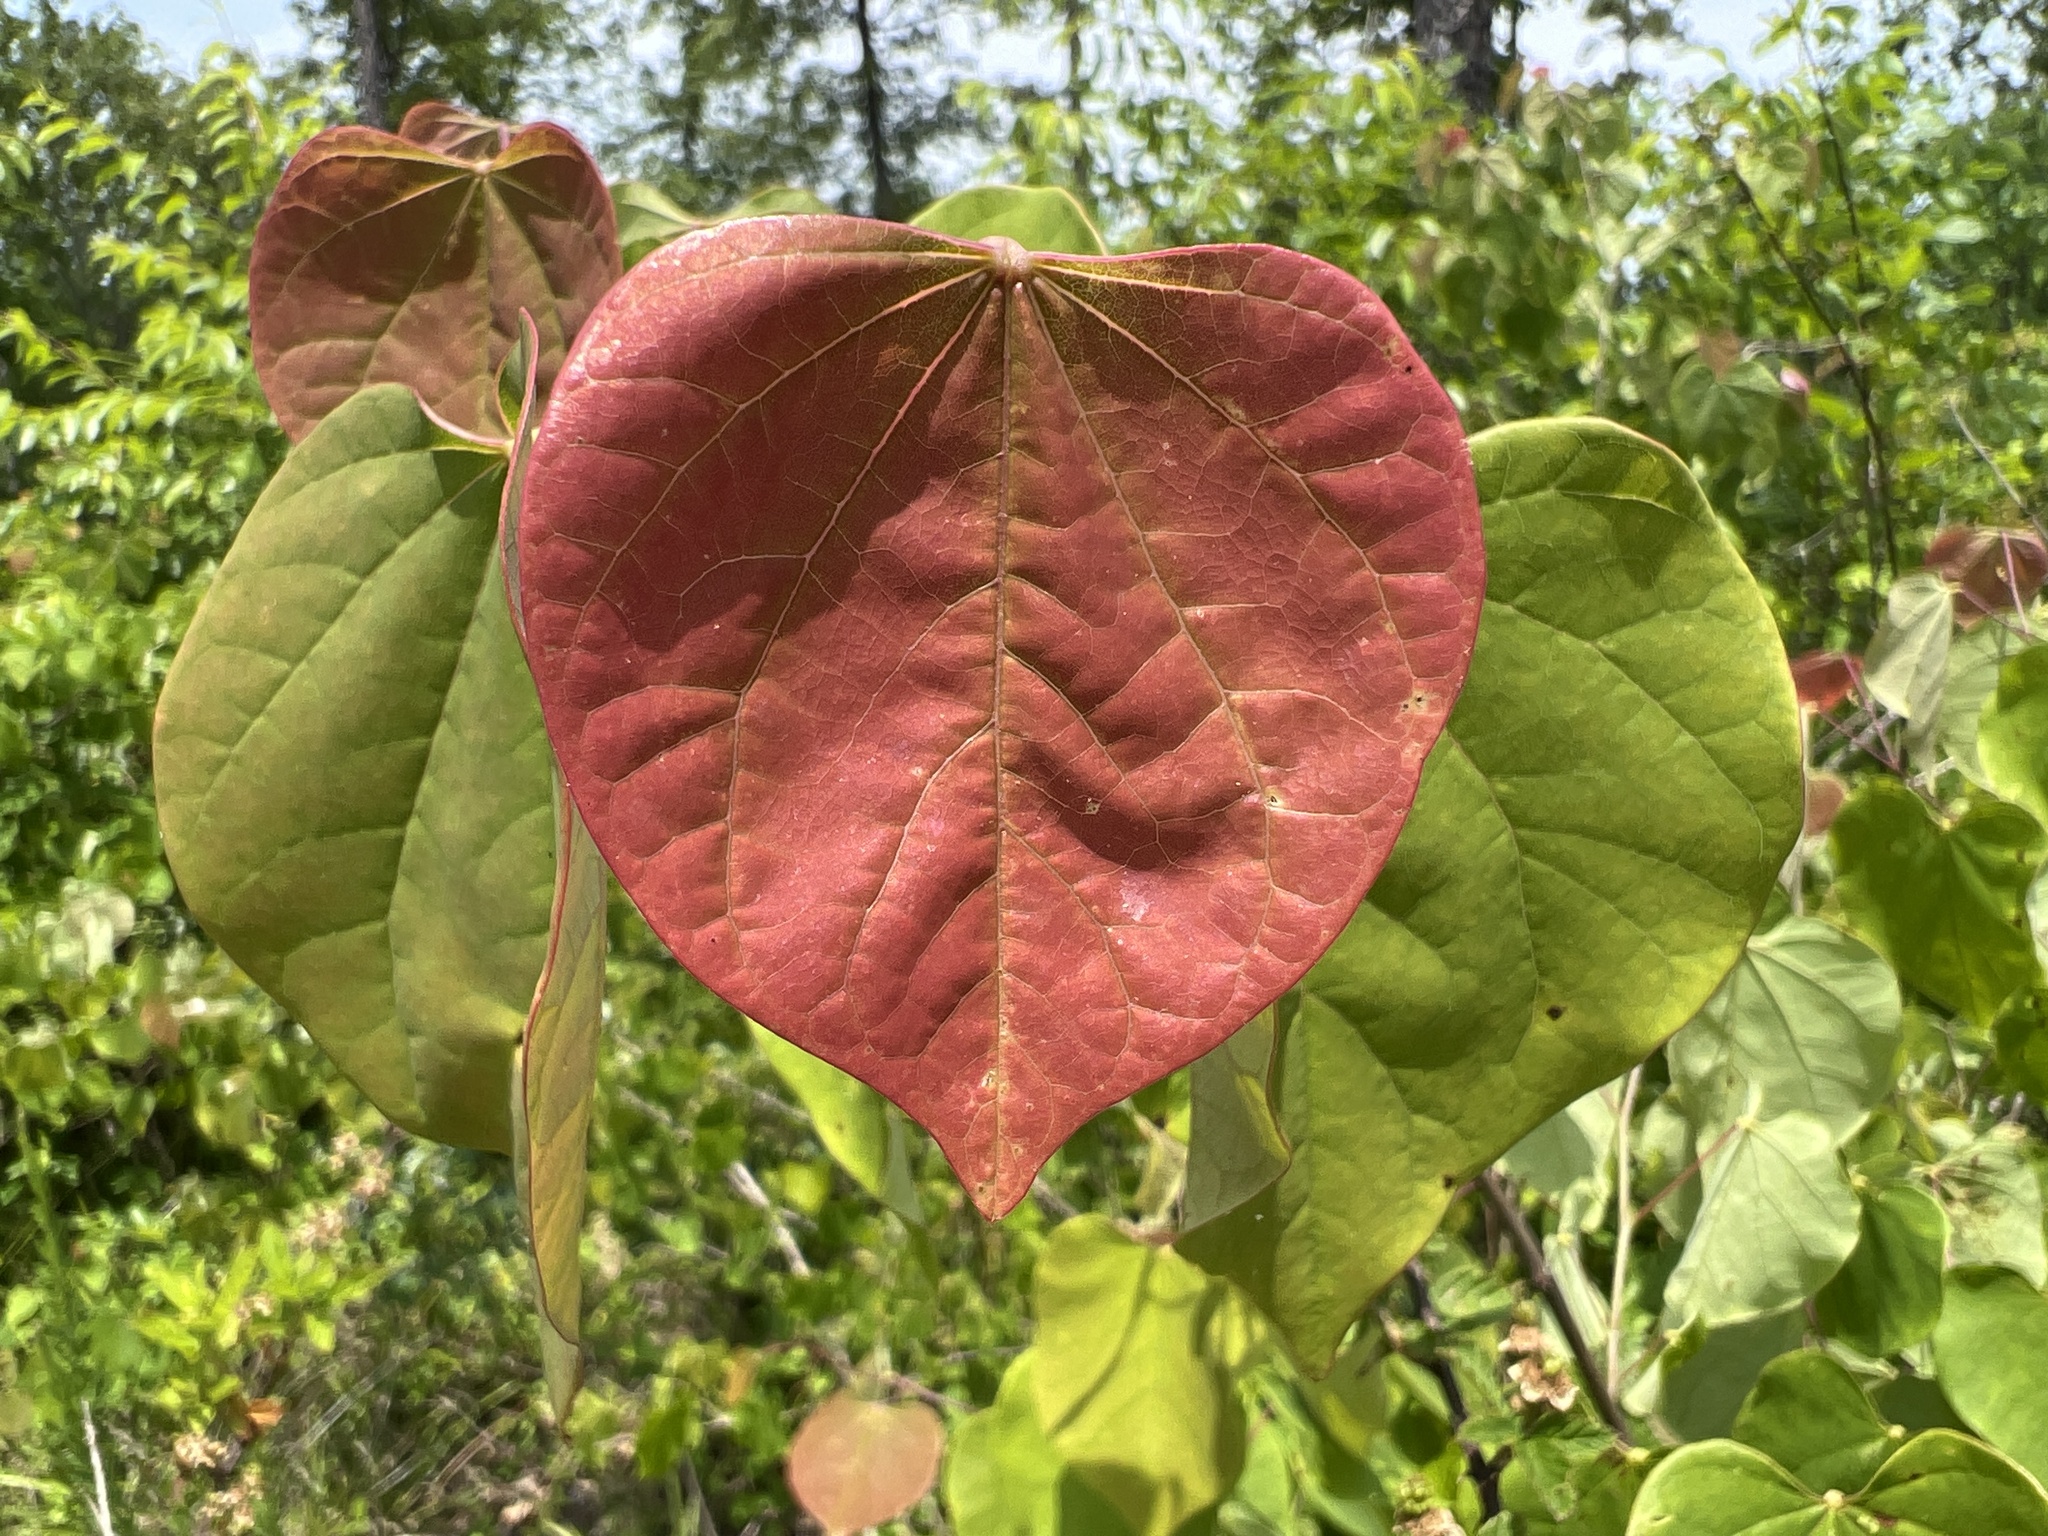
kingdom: Plantae
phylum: Tracheophyta
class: Magnoliopsida
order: Fabales
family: Fabaceae
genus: Cercis
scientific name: Cercis canadensis
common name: Eastern redbud
